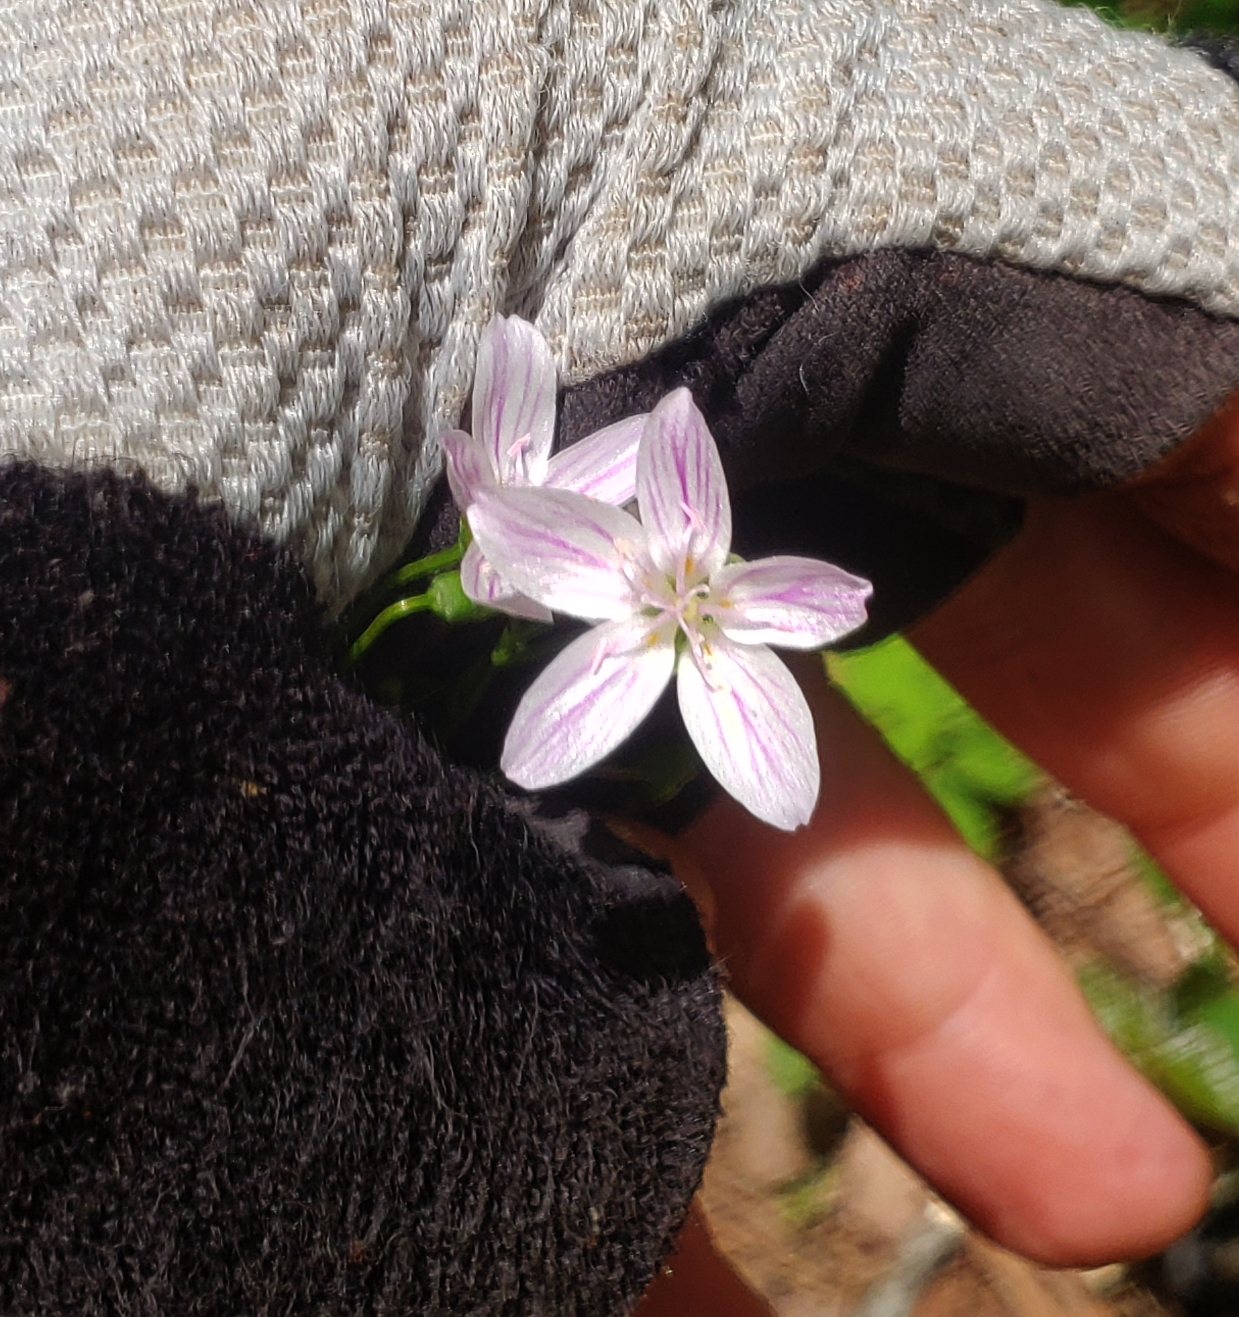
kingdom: Plantae
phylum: Tracheophyta
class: Magnoliopsida
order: Caryophyllales
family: Montiaceae
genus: Claytonia
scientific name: Claytonia virginica
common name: Virginia springbeauty
